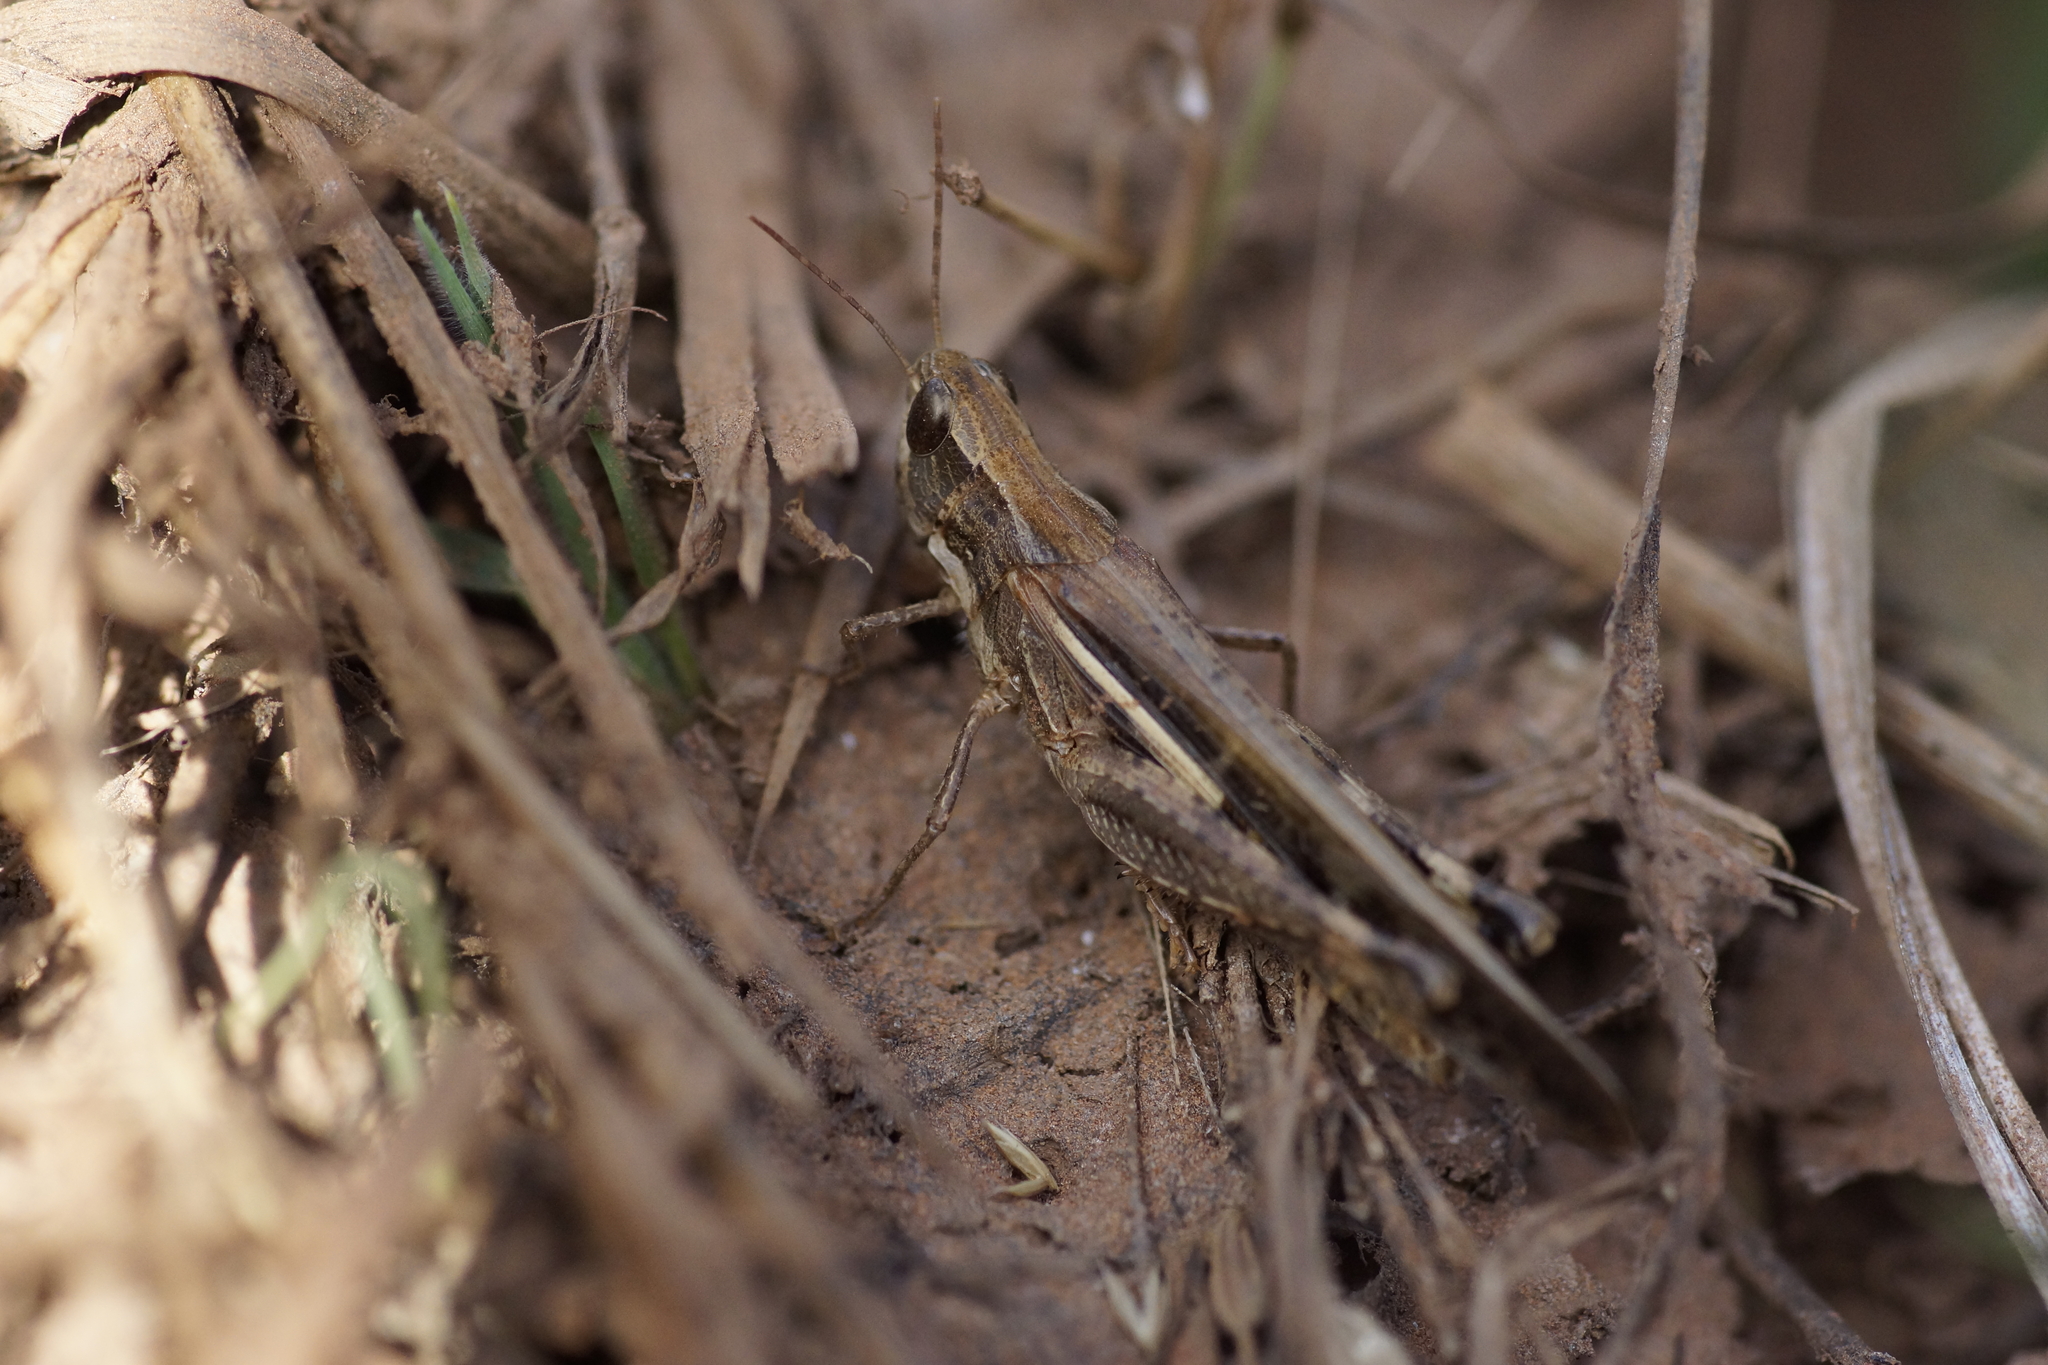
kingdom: Animalia
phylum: Arthropoda
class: Insecta
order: Orthoptera
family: Acrididae
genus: Aiolopus
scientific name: Aiolopus thalassinus
